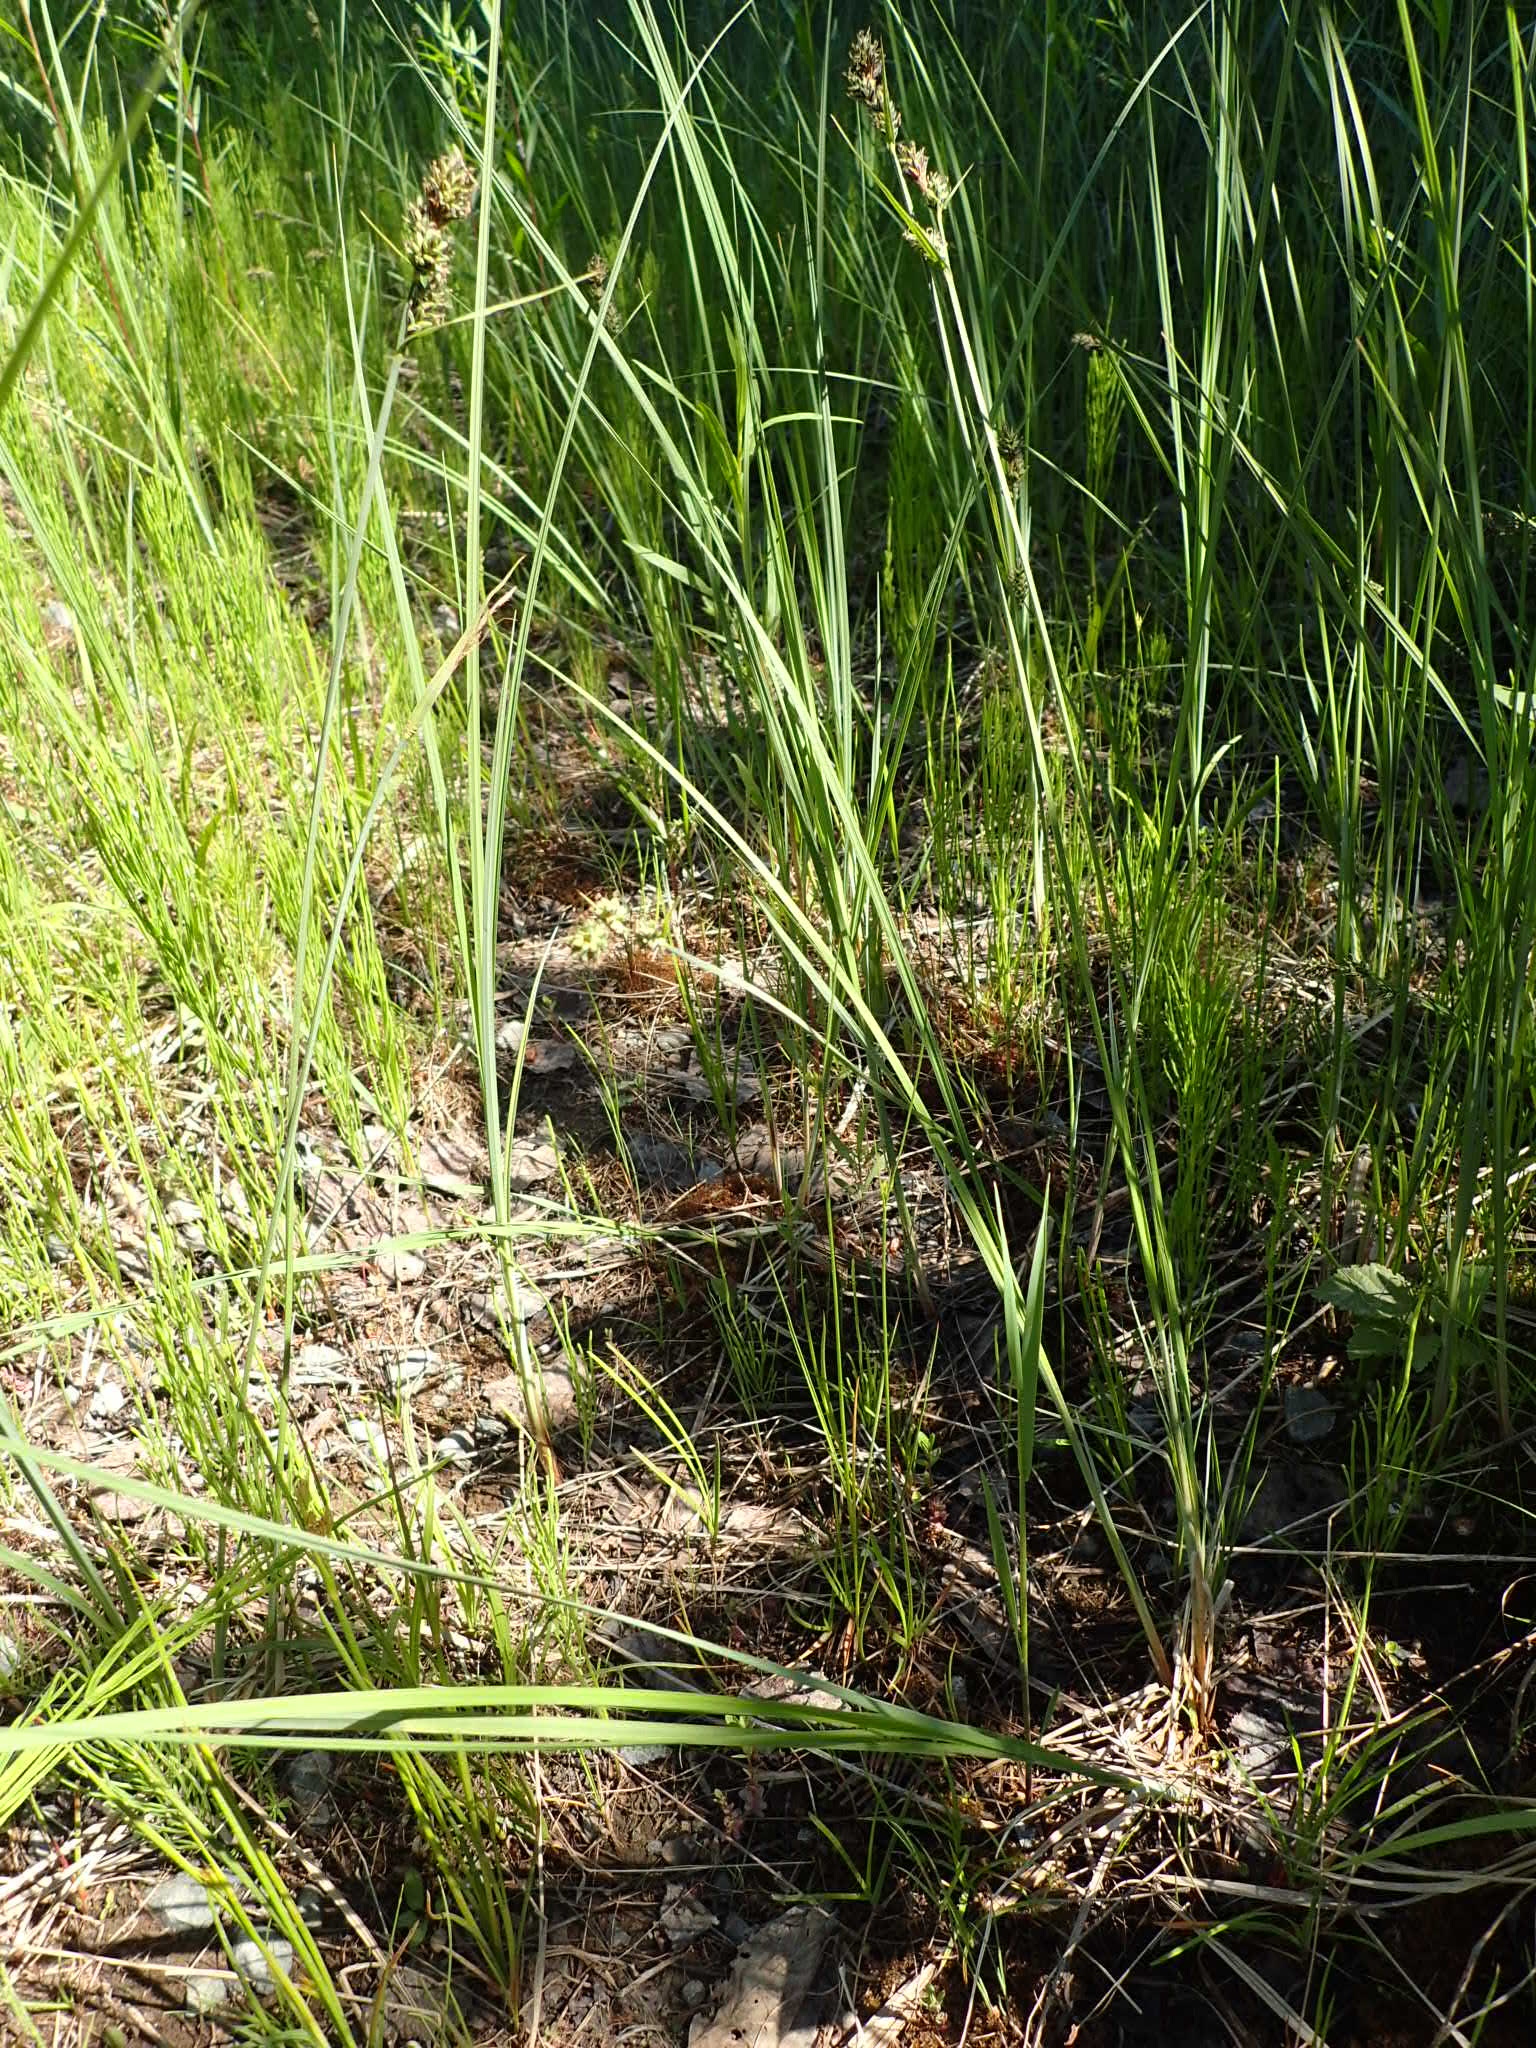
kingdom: Plantae
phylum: Tracheophyta
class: Liliopsida
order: Poales
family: Cyperaceae
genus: Carex
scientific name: Carex buxbaumii
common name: Club sedge
